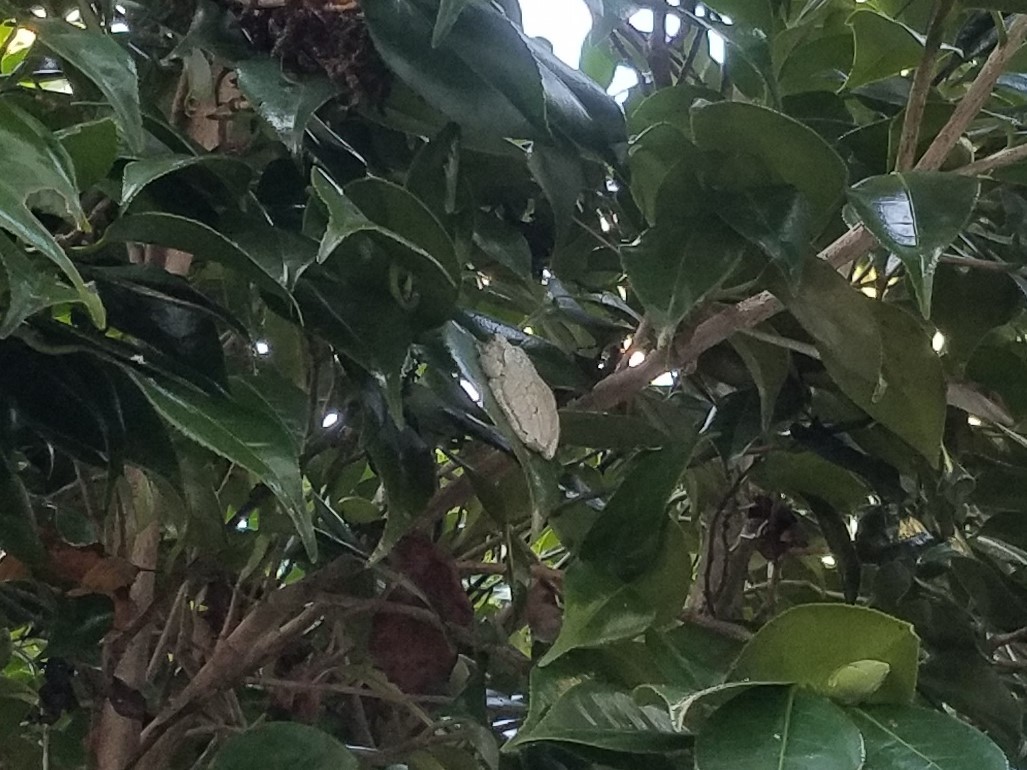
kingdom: Animalia
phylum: Chordata
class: Amphibia
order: Anura
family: Hylidae
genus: Dryophytes
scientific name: Dryophytes chrysoscelis
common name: Cope's gray treefrog
